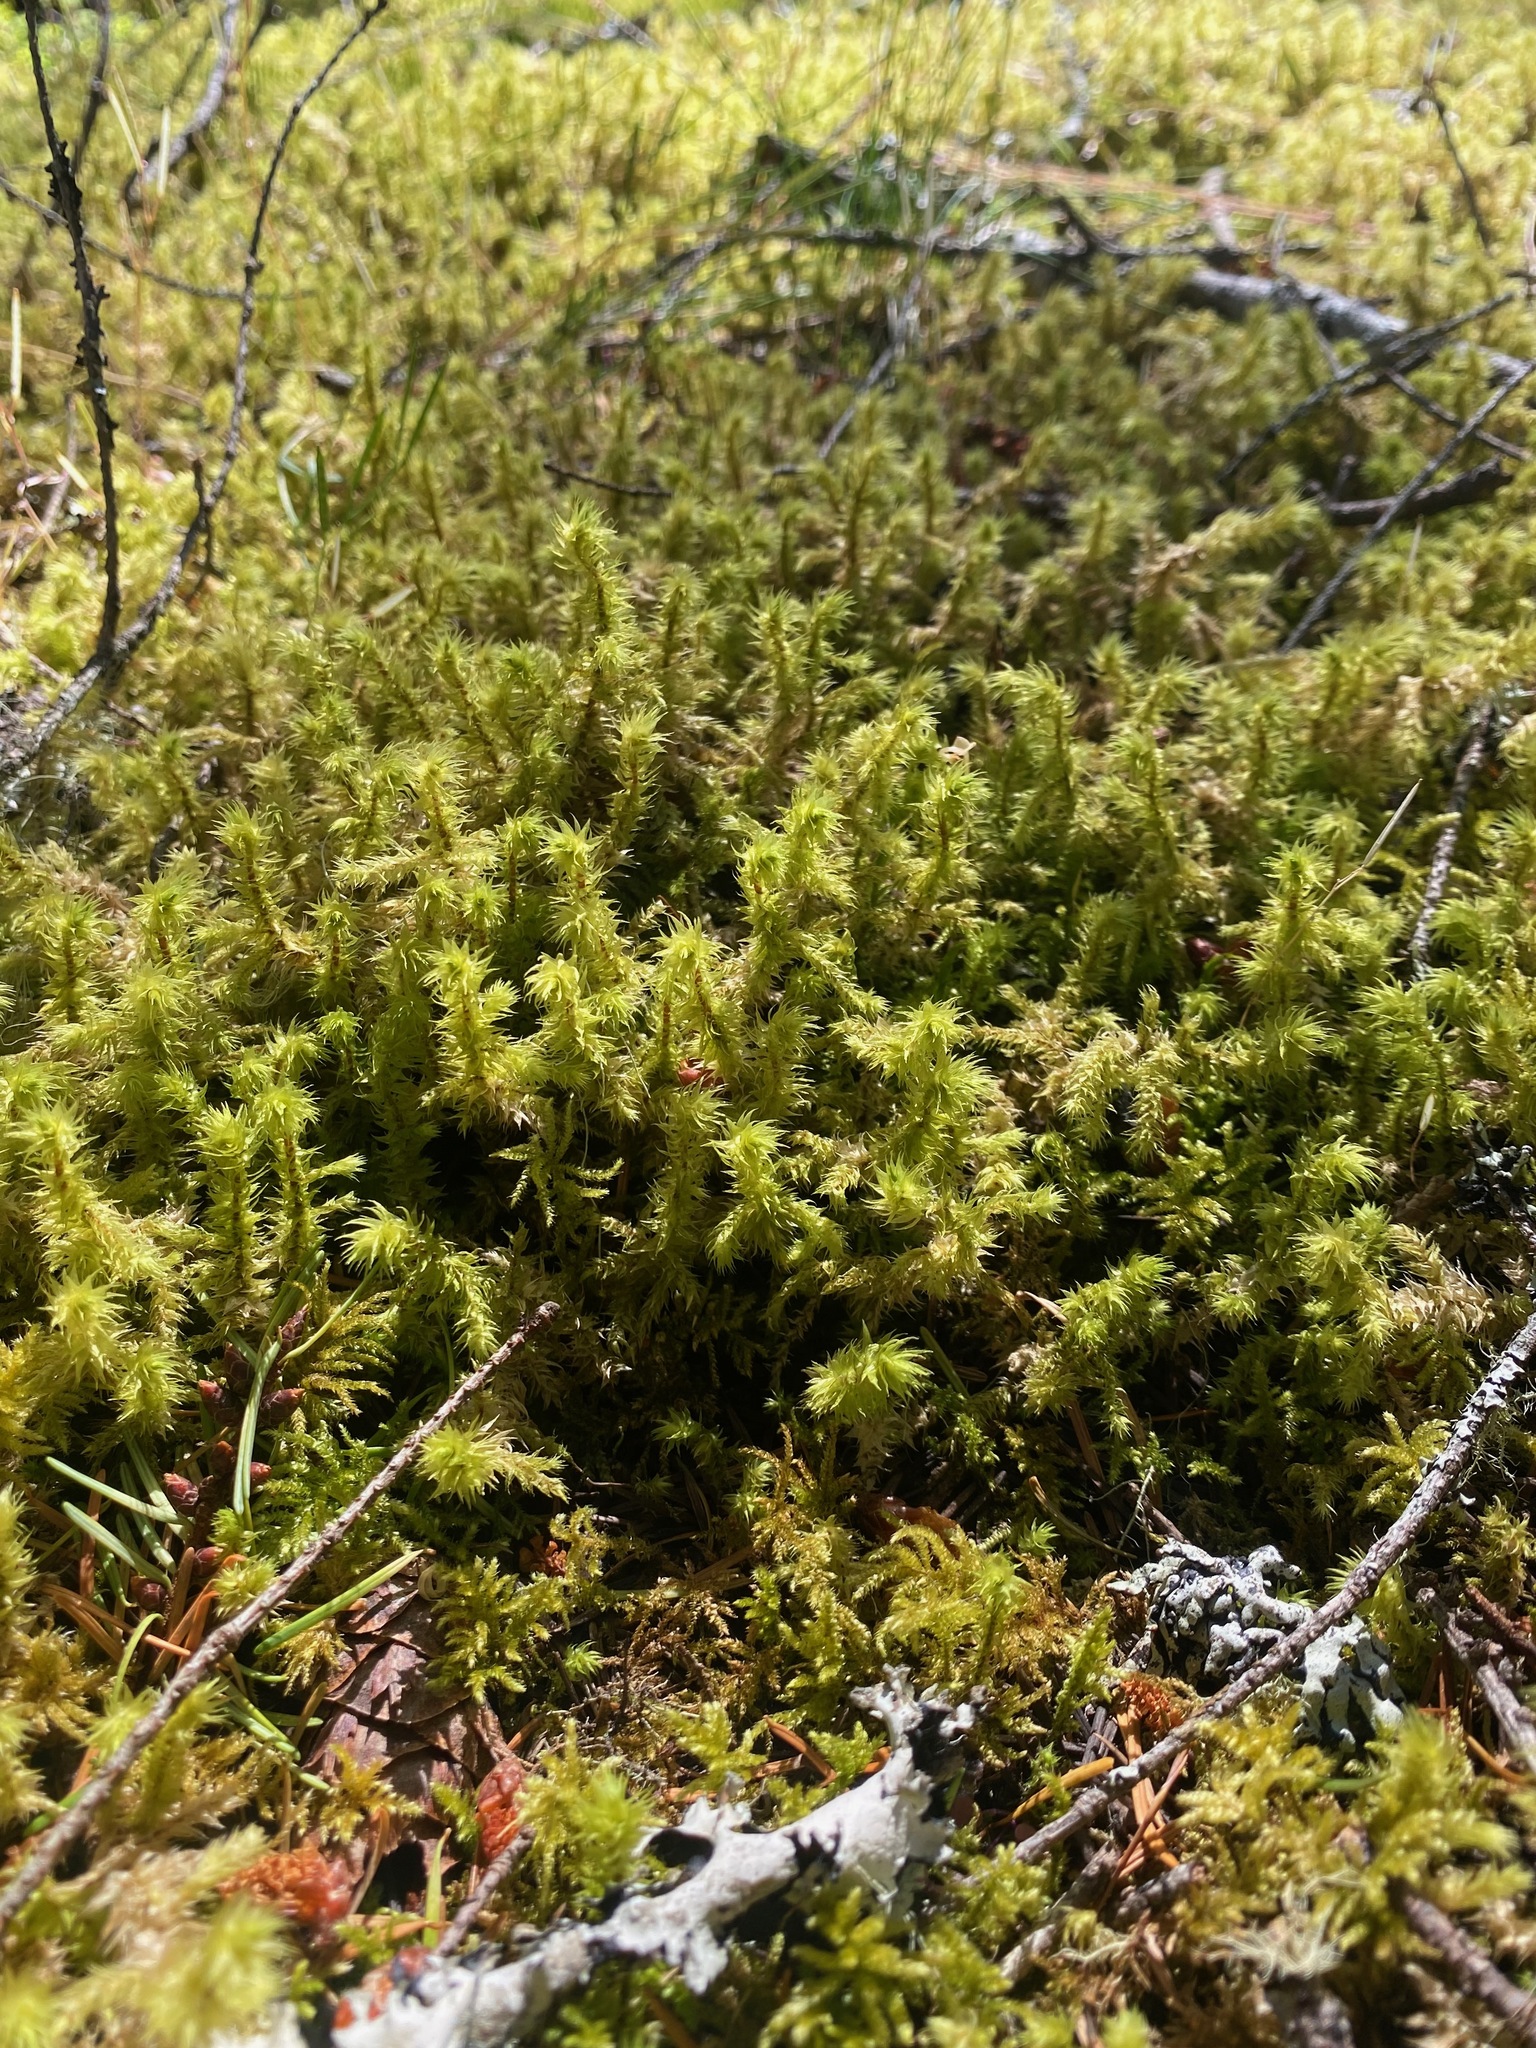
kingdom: Plantae
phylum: Bryophyta
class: Bryopsida
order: Hypnales
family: Hylocomiaceae
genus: Hylocomiadelphus
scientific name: Hylocomiadelphus triquetrus
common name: Rough goose neck moss
